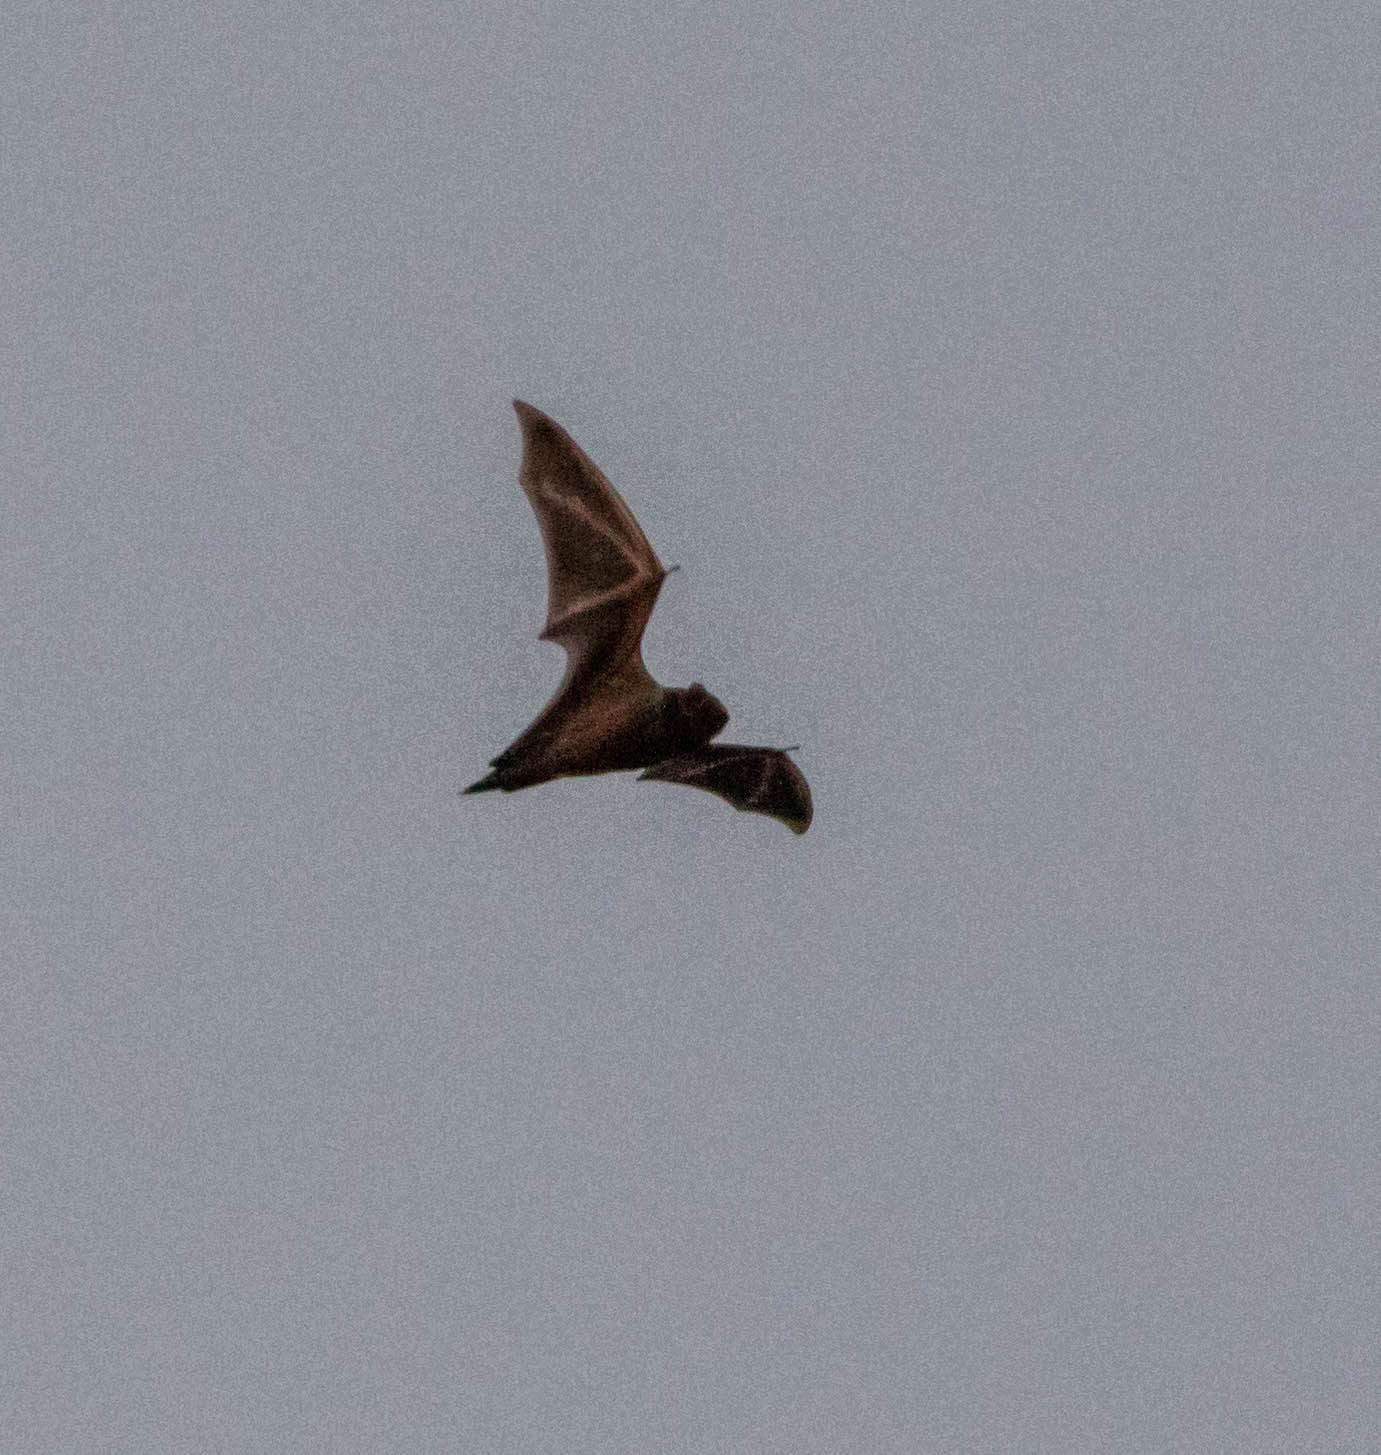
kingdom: Animalia
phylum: Chordata
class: Mammalia
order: Chiroptera
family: Vespertilionidae
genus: Lasiurus
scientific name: Lasiurus
